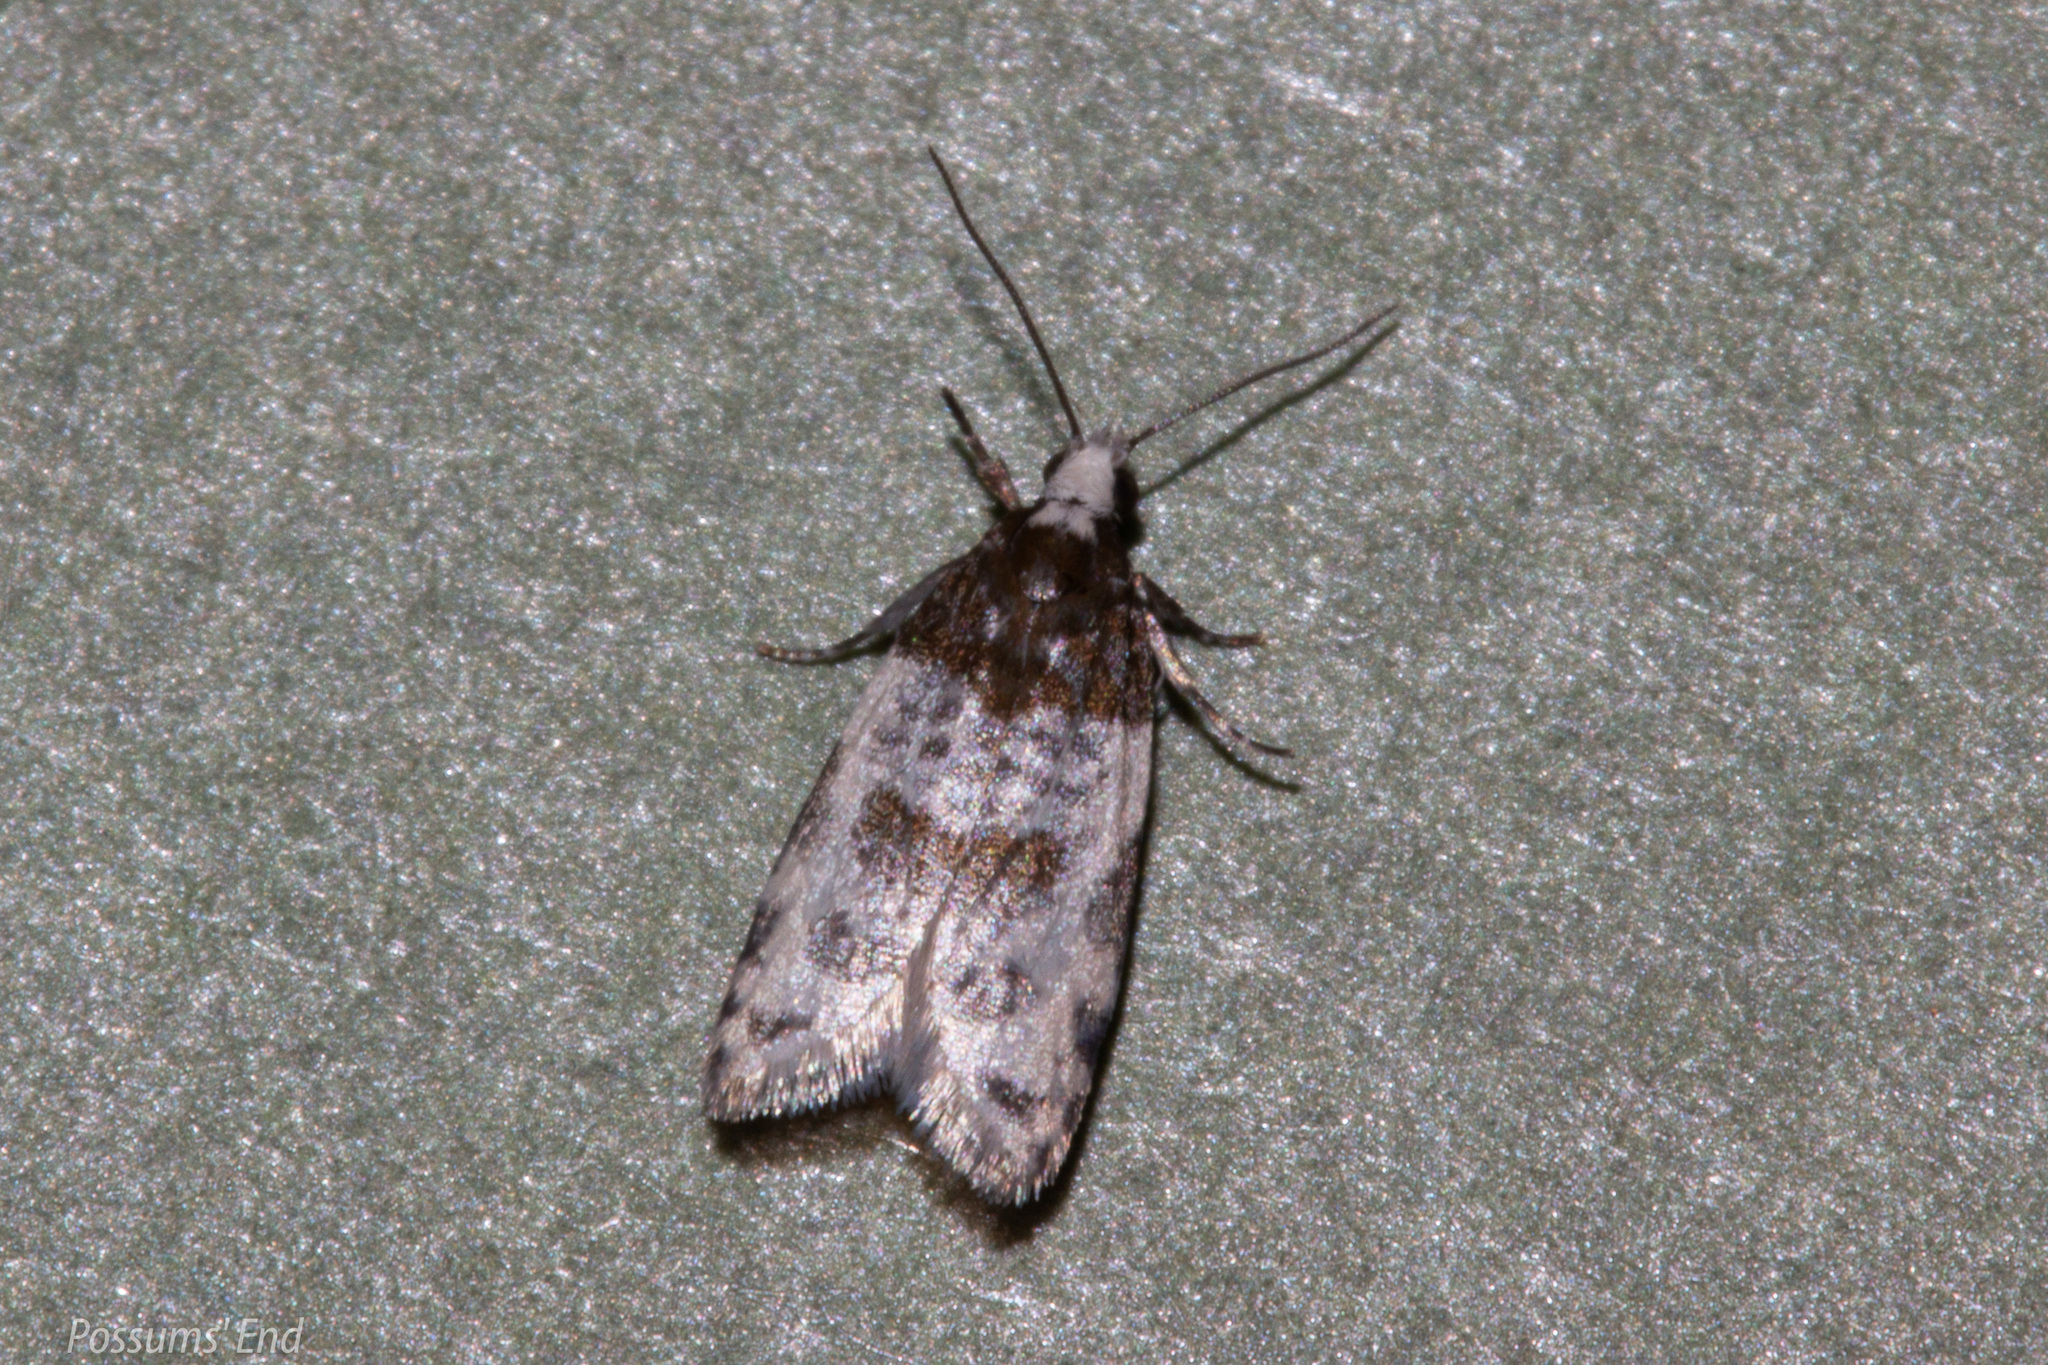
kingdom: Animalia
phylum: Arthropoda
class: Insecta
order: Lepidoptera
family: Tortricidae
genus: Prothelymna
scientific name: Prothelymna niphostrota
